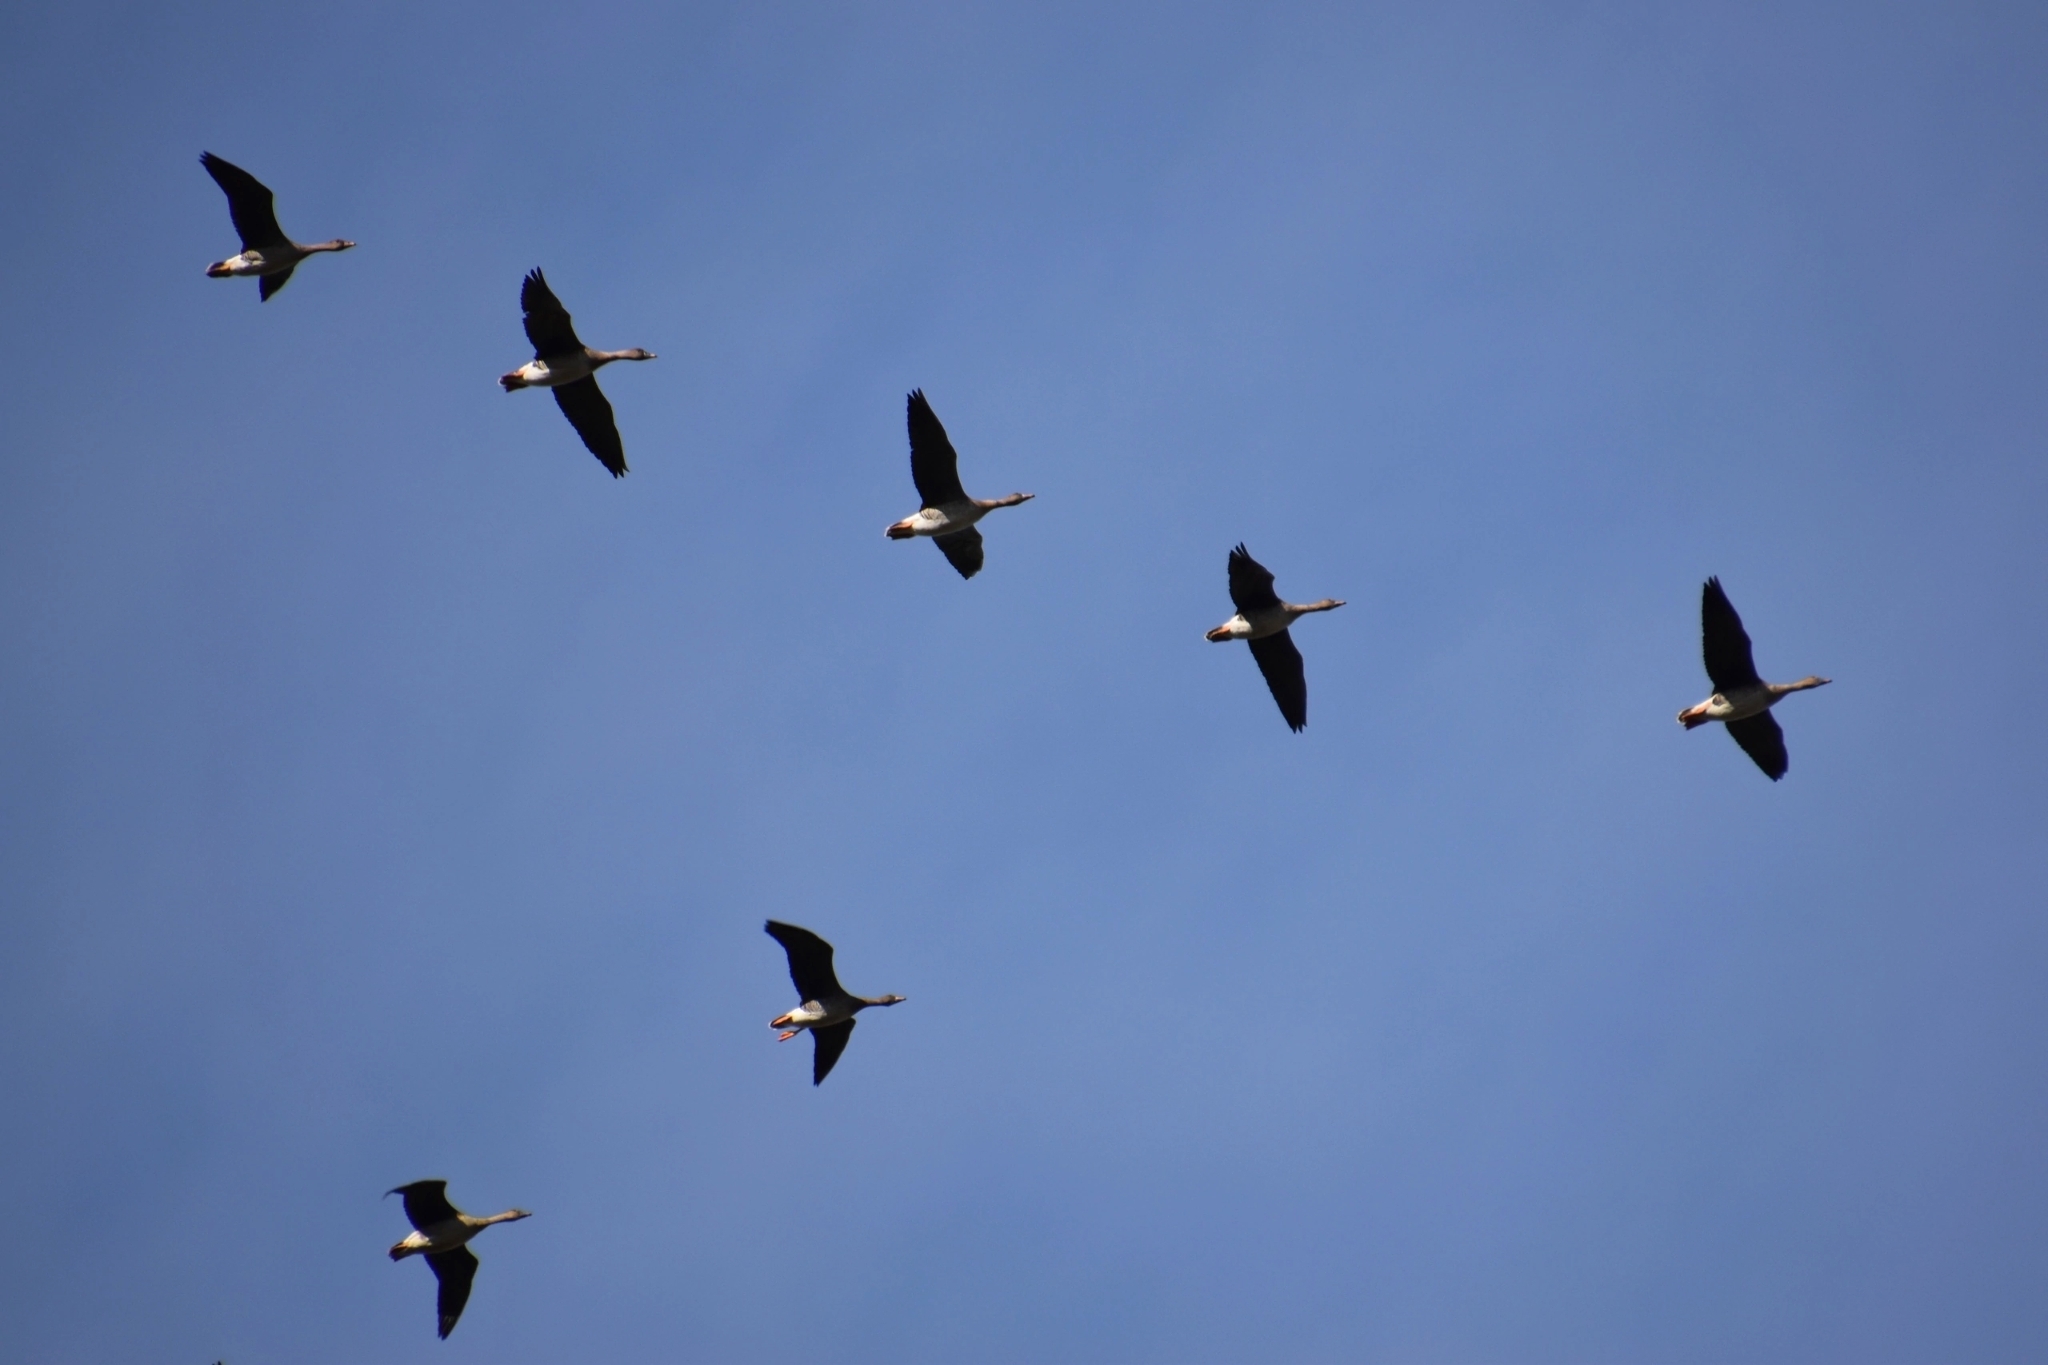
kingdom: Animalia
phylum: Chordata
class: Aves
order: Anseriformes
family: Anatidae
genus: Anser
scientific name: Anser fabalis
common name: Bean goose
